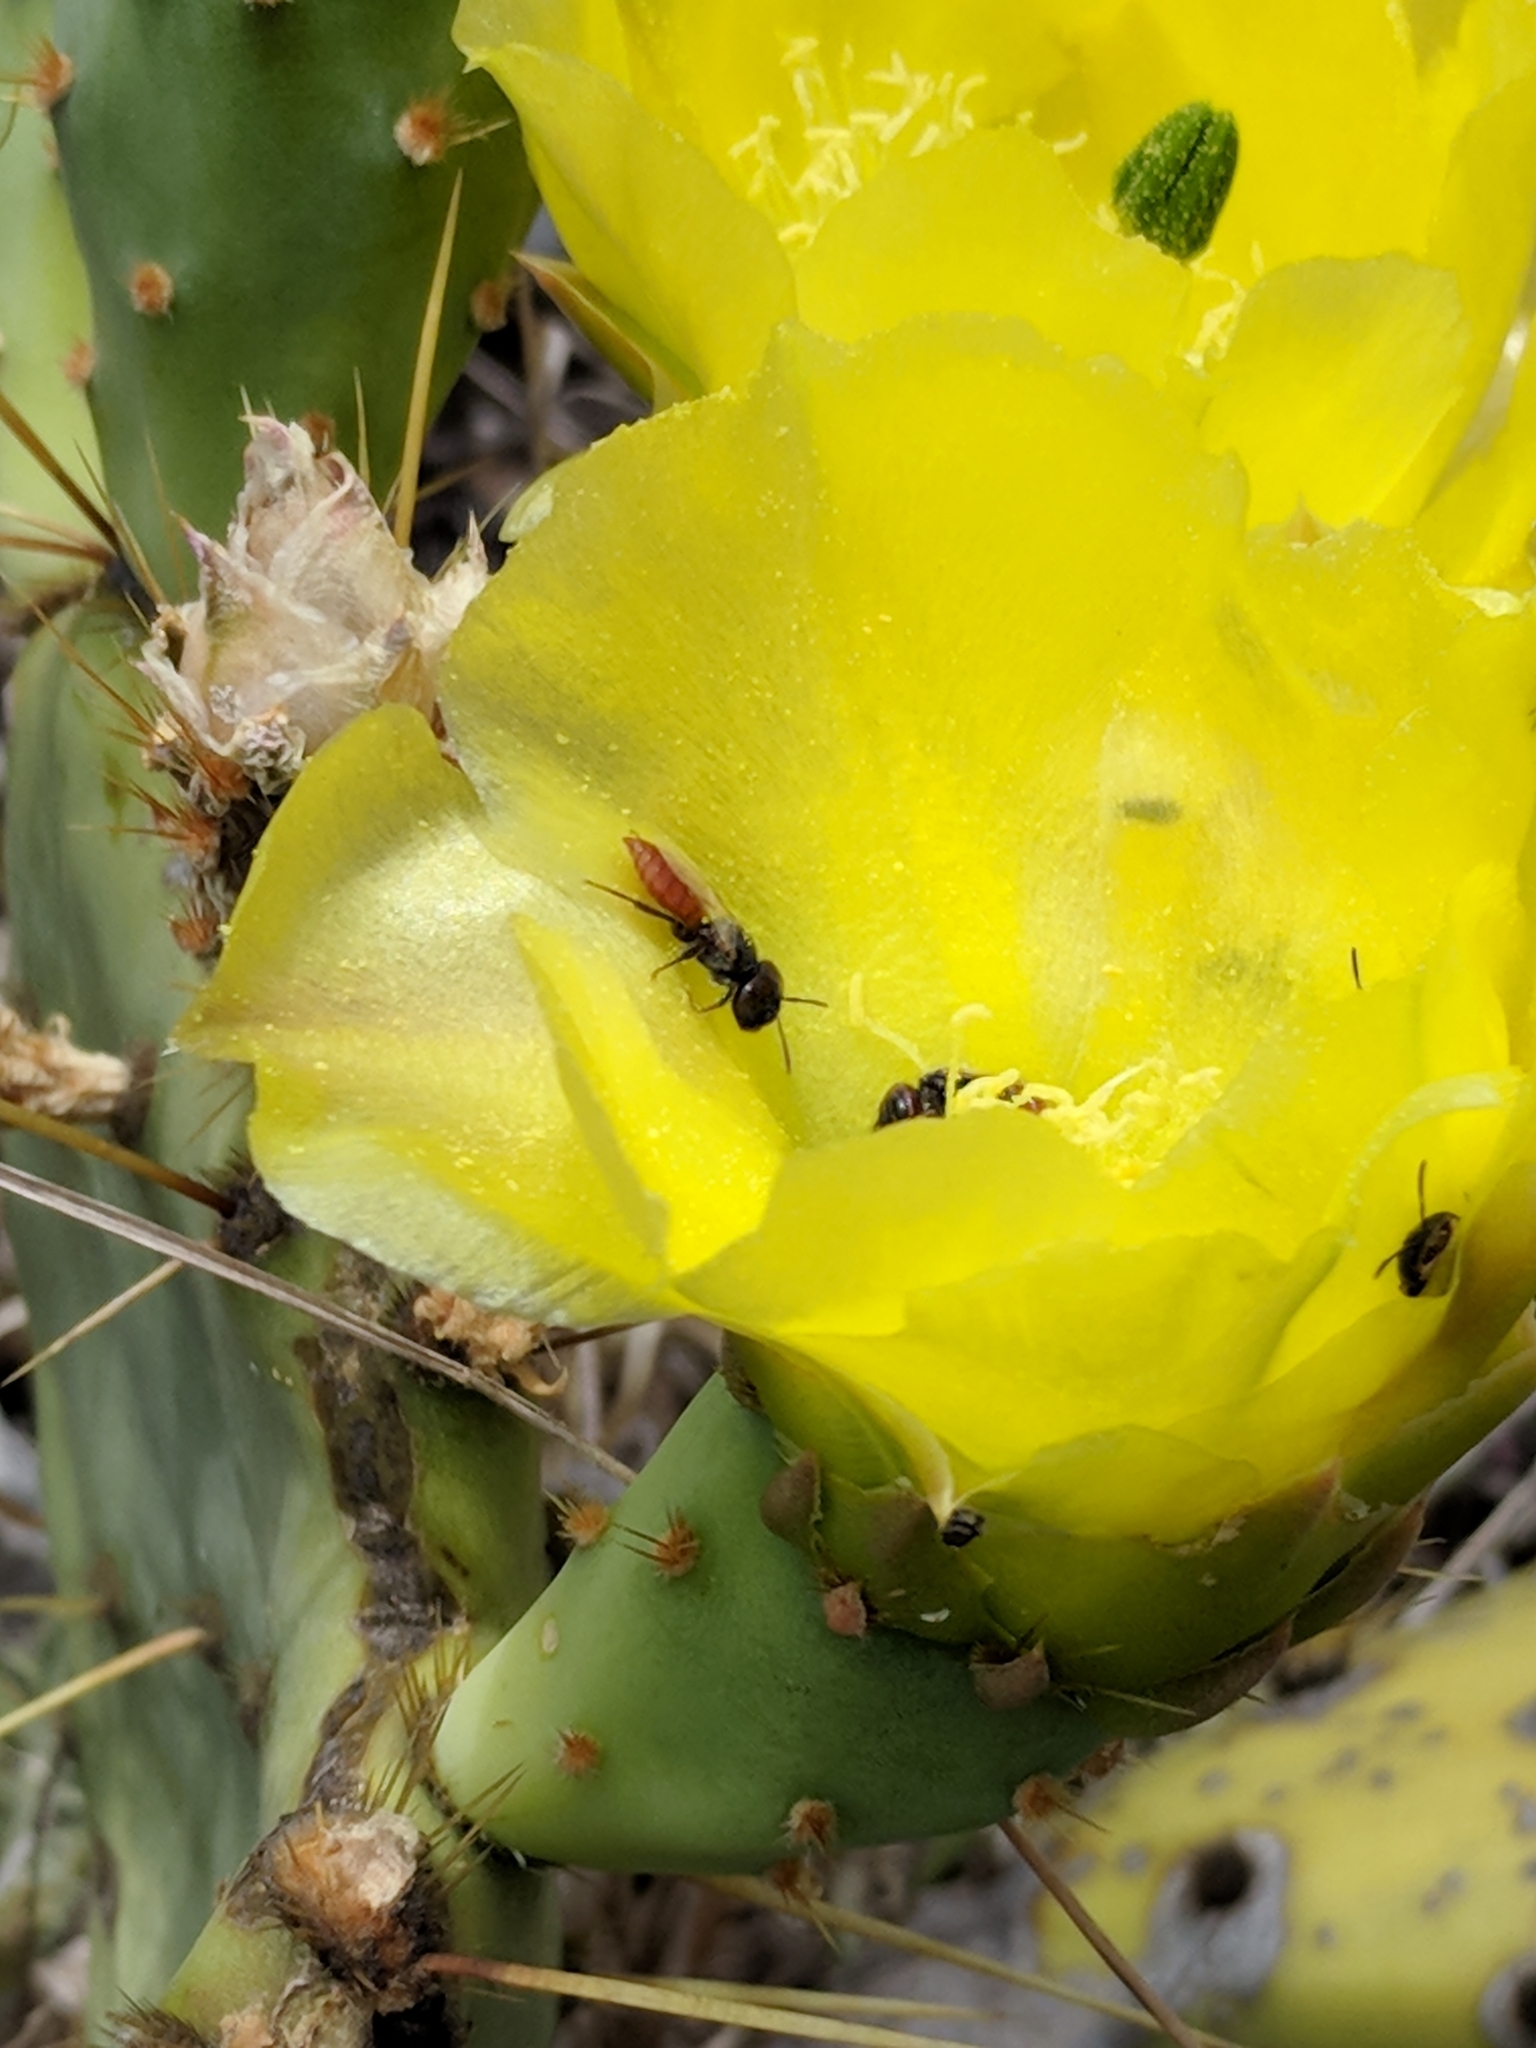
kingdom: Animalia
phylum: Arthropoda
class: Insecta
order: Hymenoptera
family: Andrenidae
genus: Macrotera
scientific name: Macrotera
